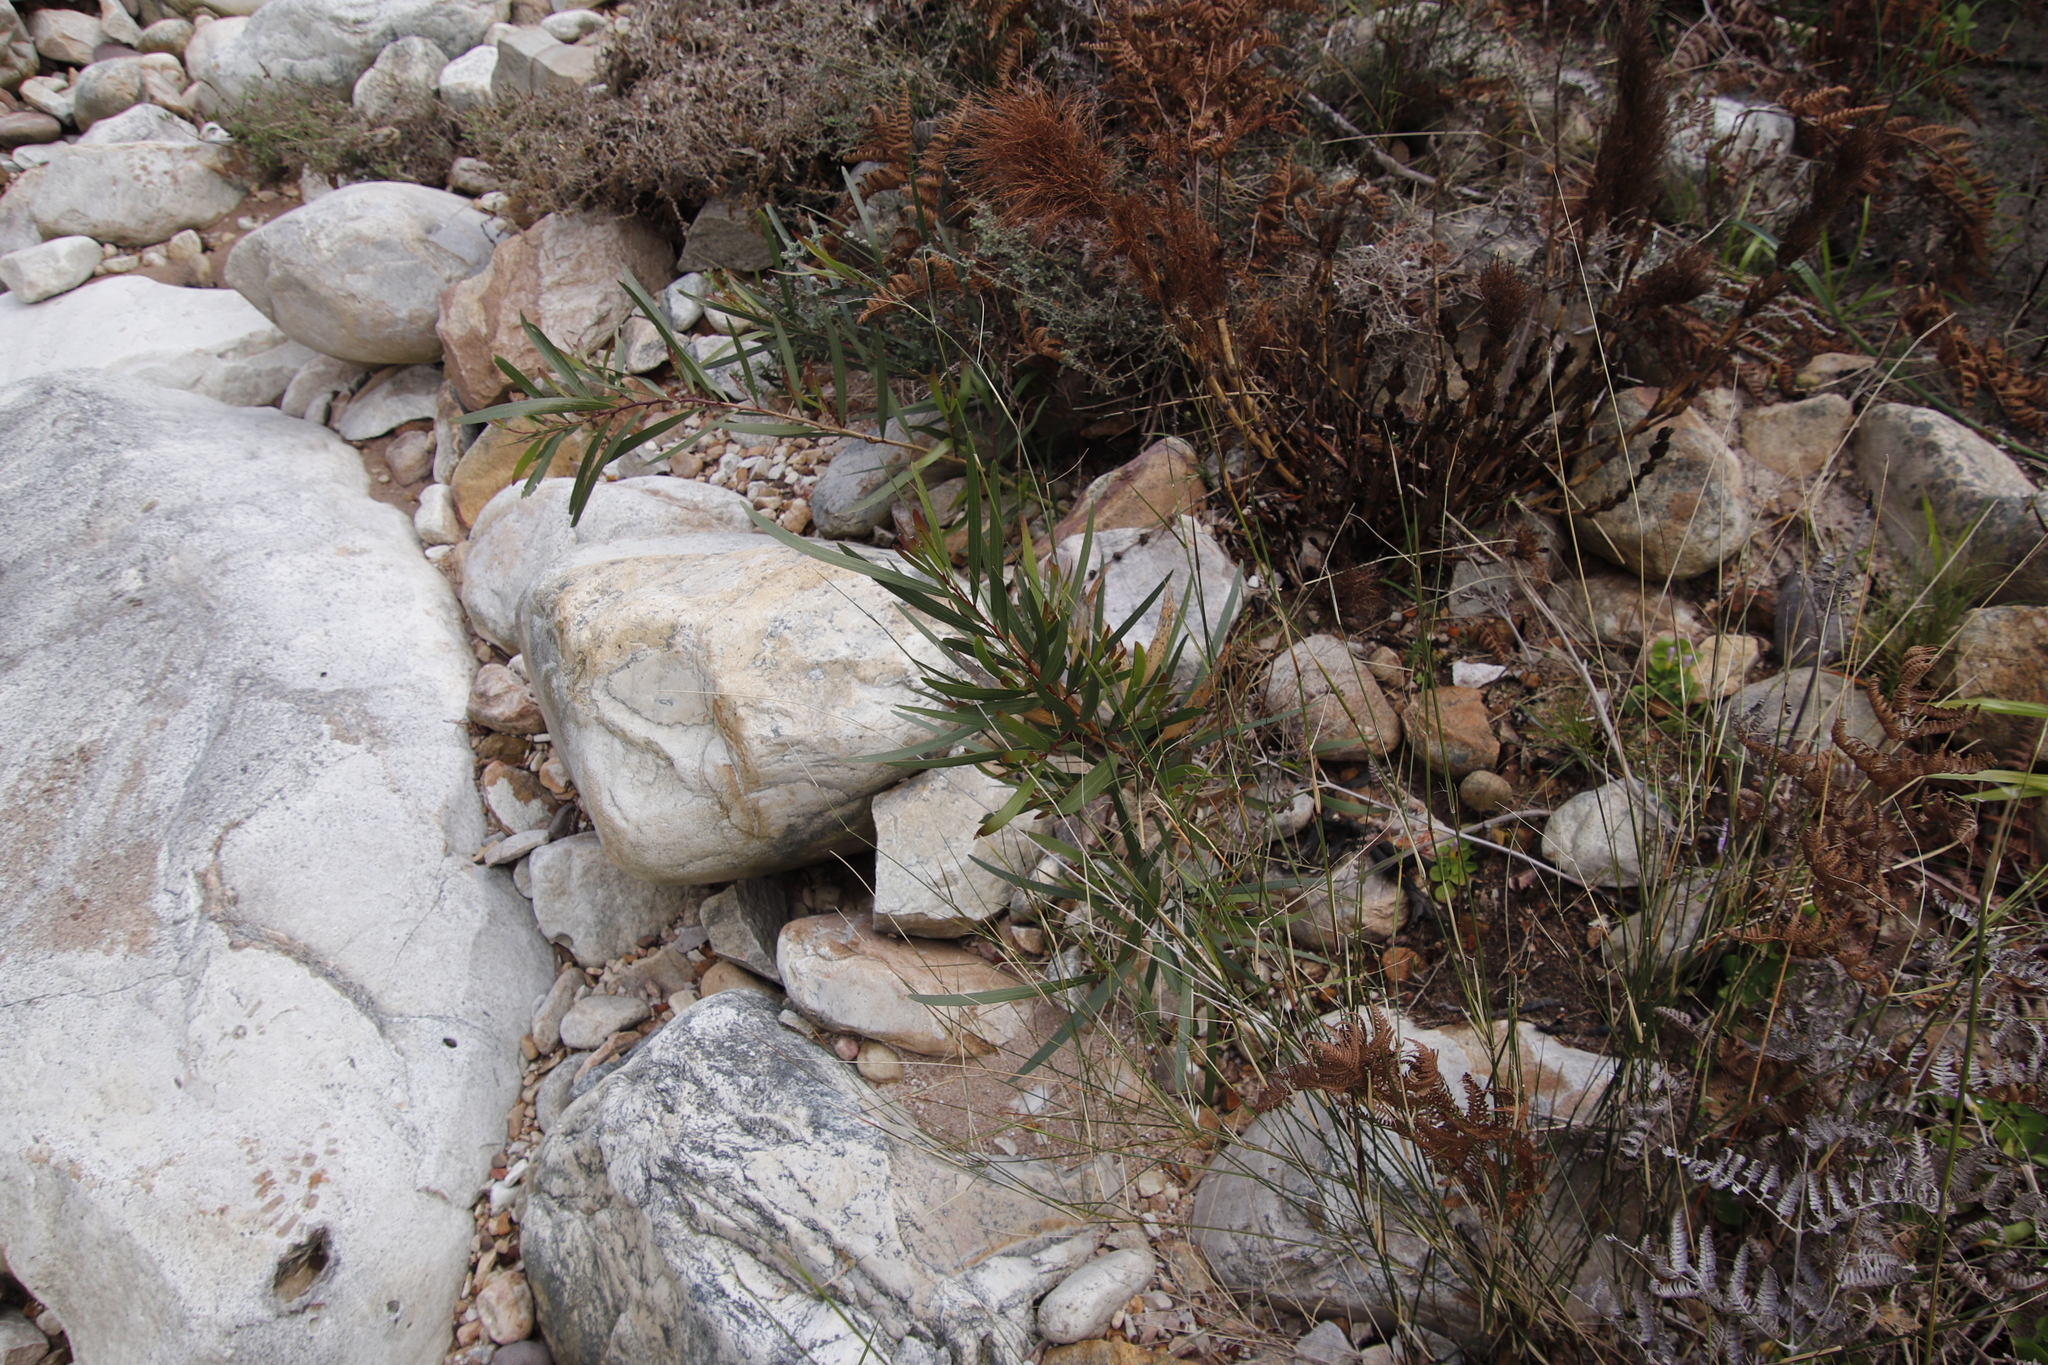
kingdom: Plantae
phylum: Tracheophyta
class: Magnoliopsida
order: Fabales
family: Fabaceae
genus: Acacia
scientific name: Acacia longifolia
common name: Sydney golden wattle
